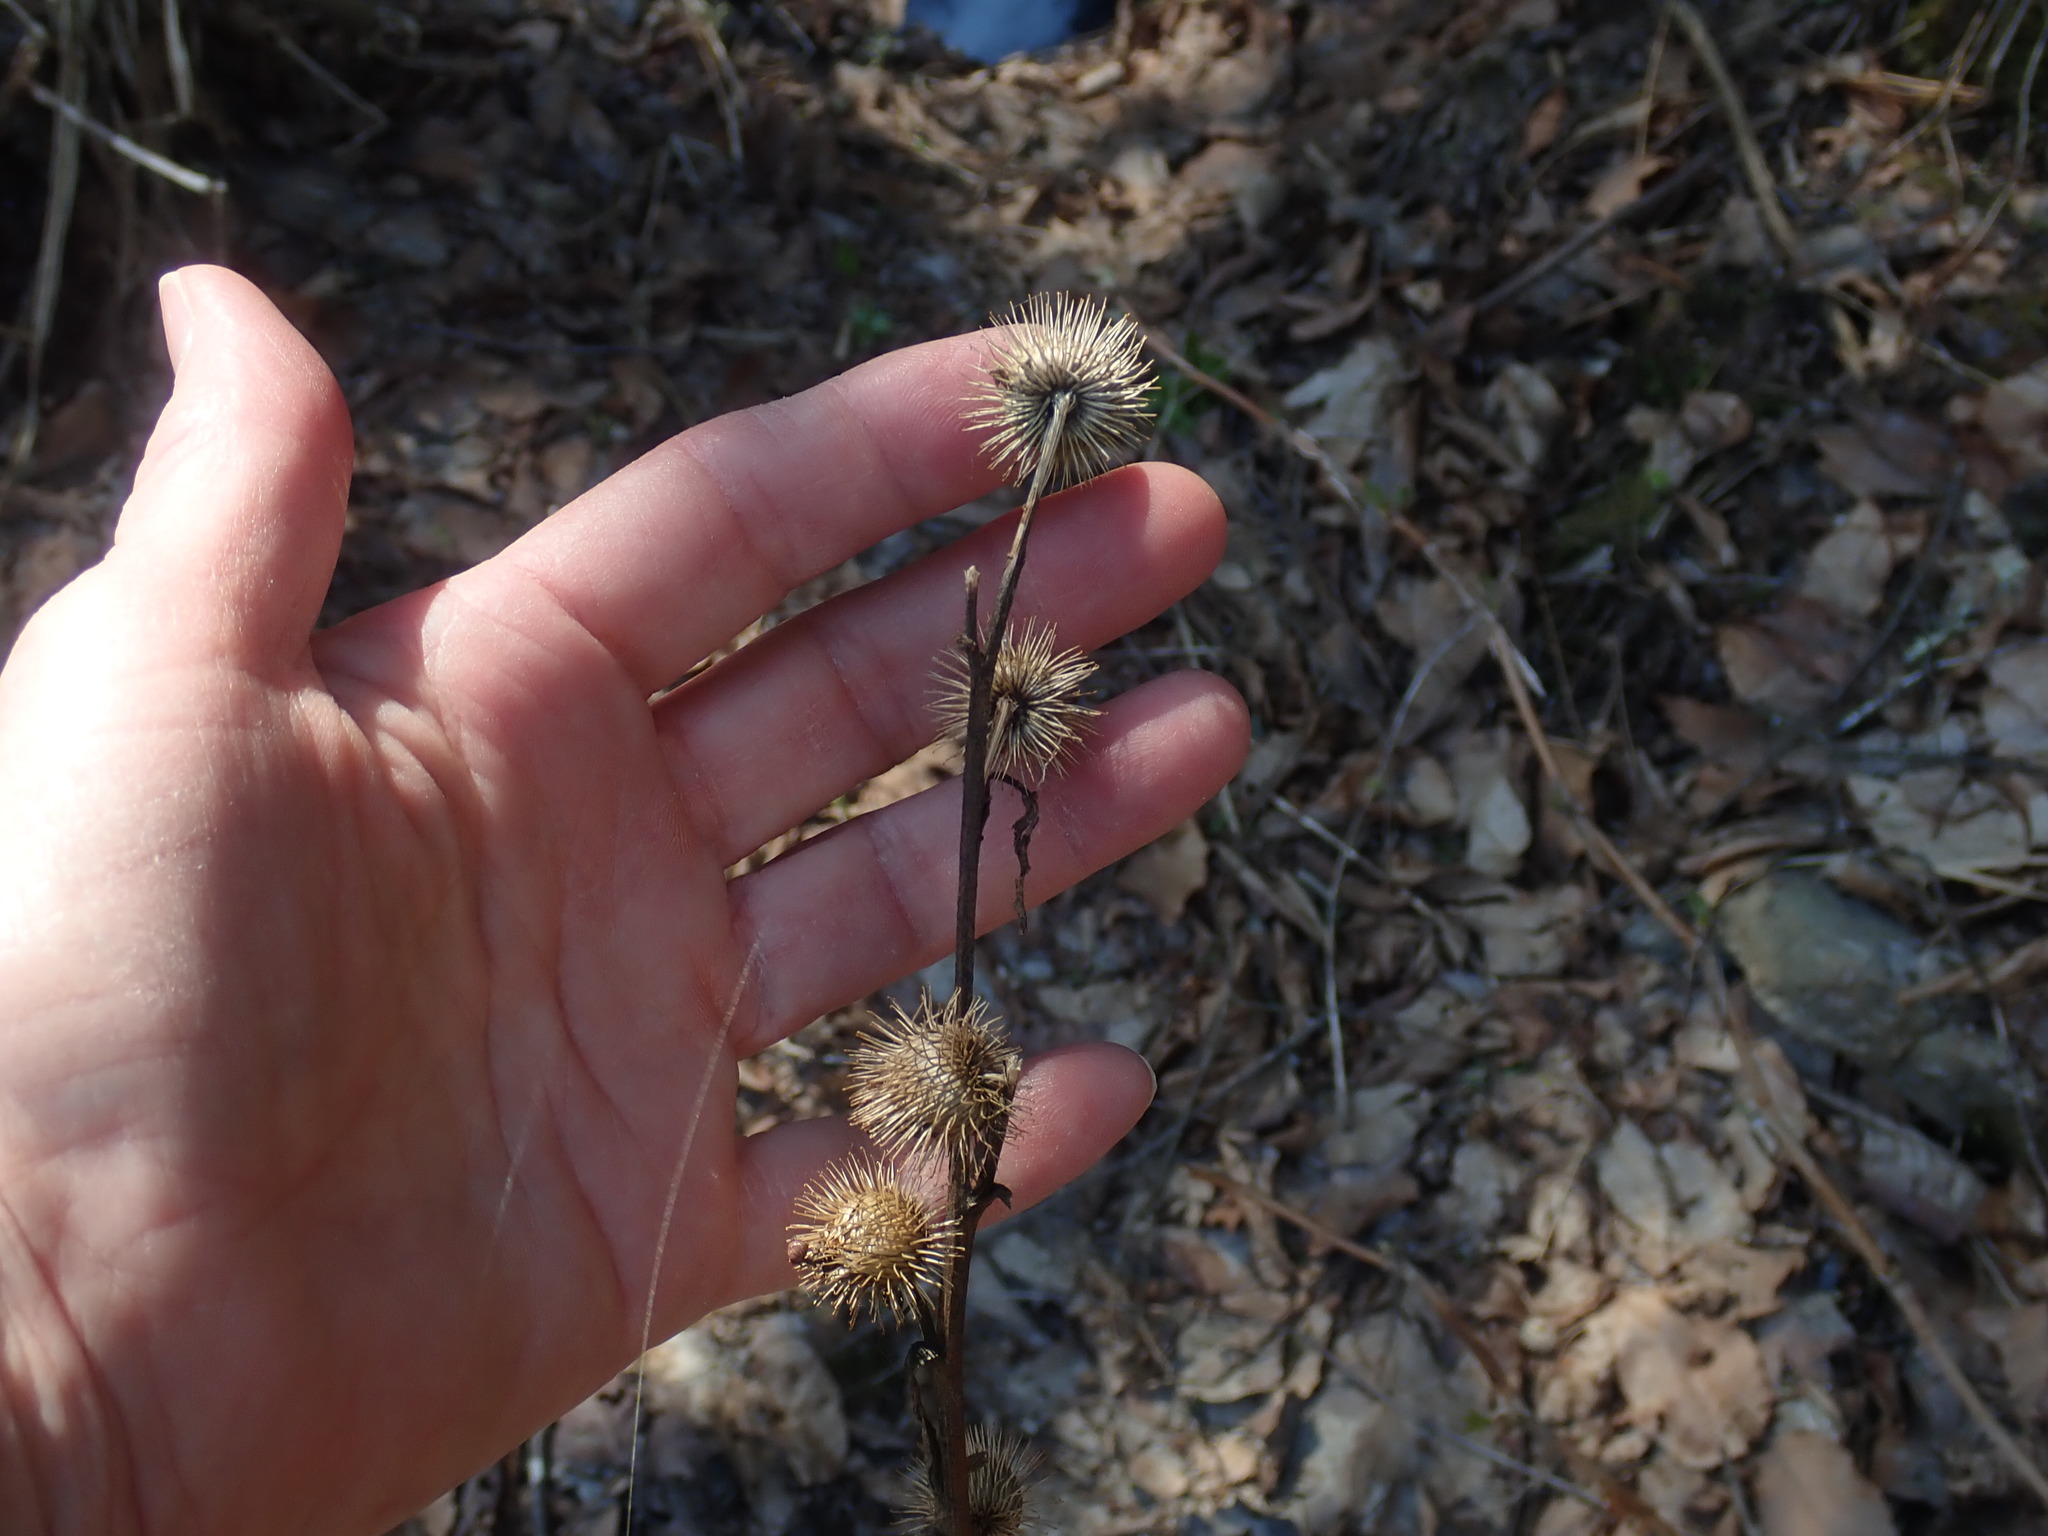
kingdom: Plantae
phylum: Tracheophyta
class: Magnoliopsida
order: Asterales
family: Asteraceae
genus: Arctium
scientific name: Arctium
